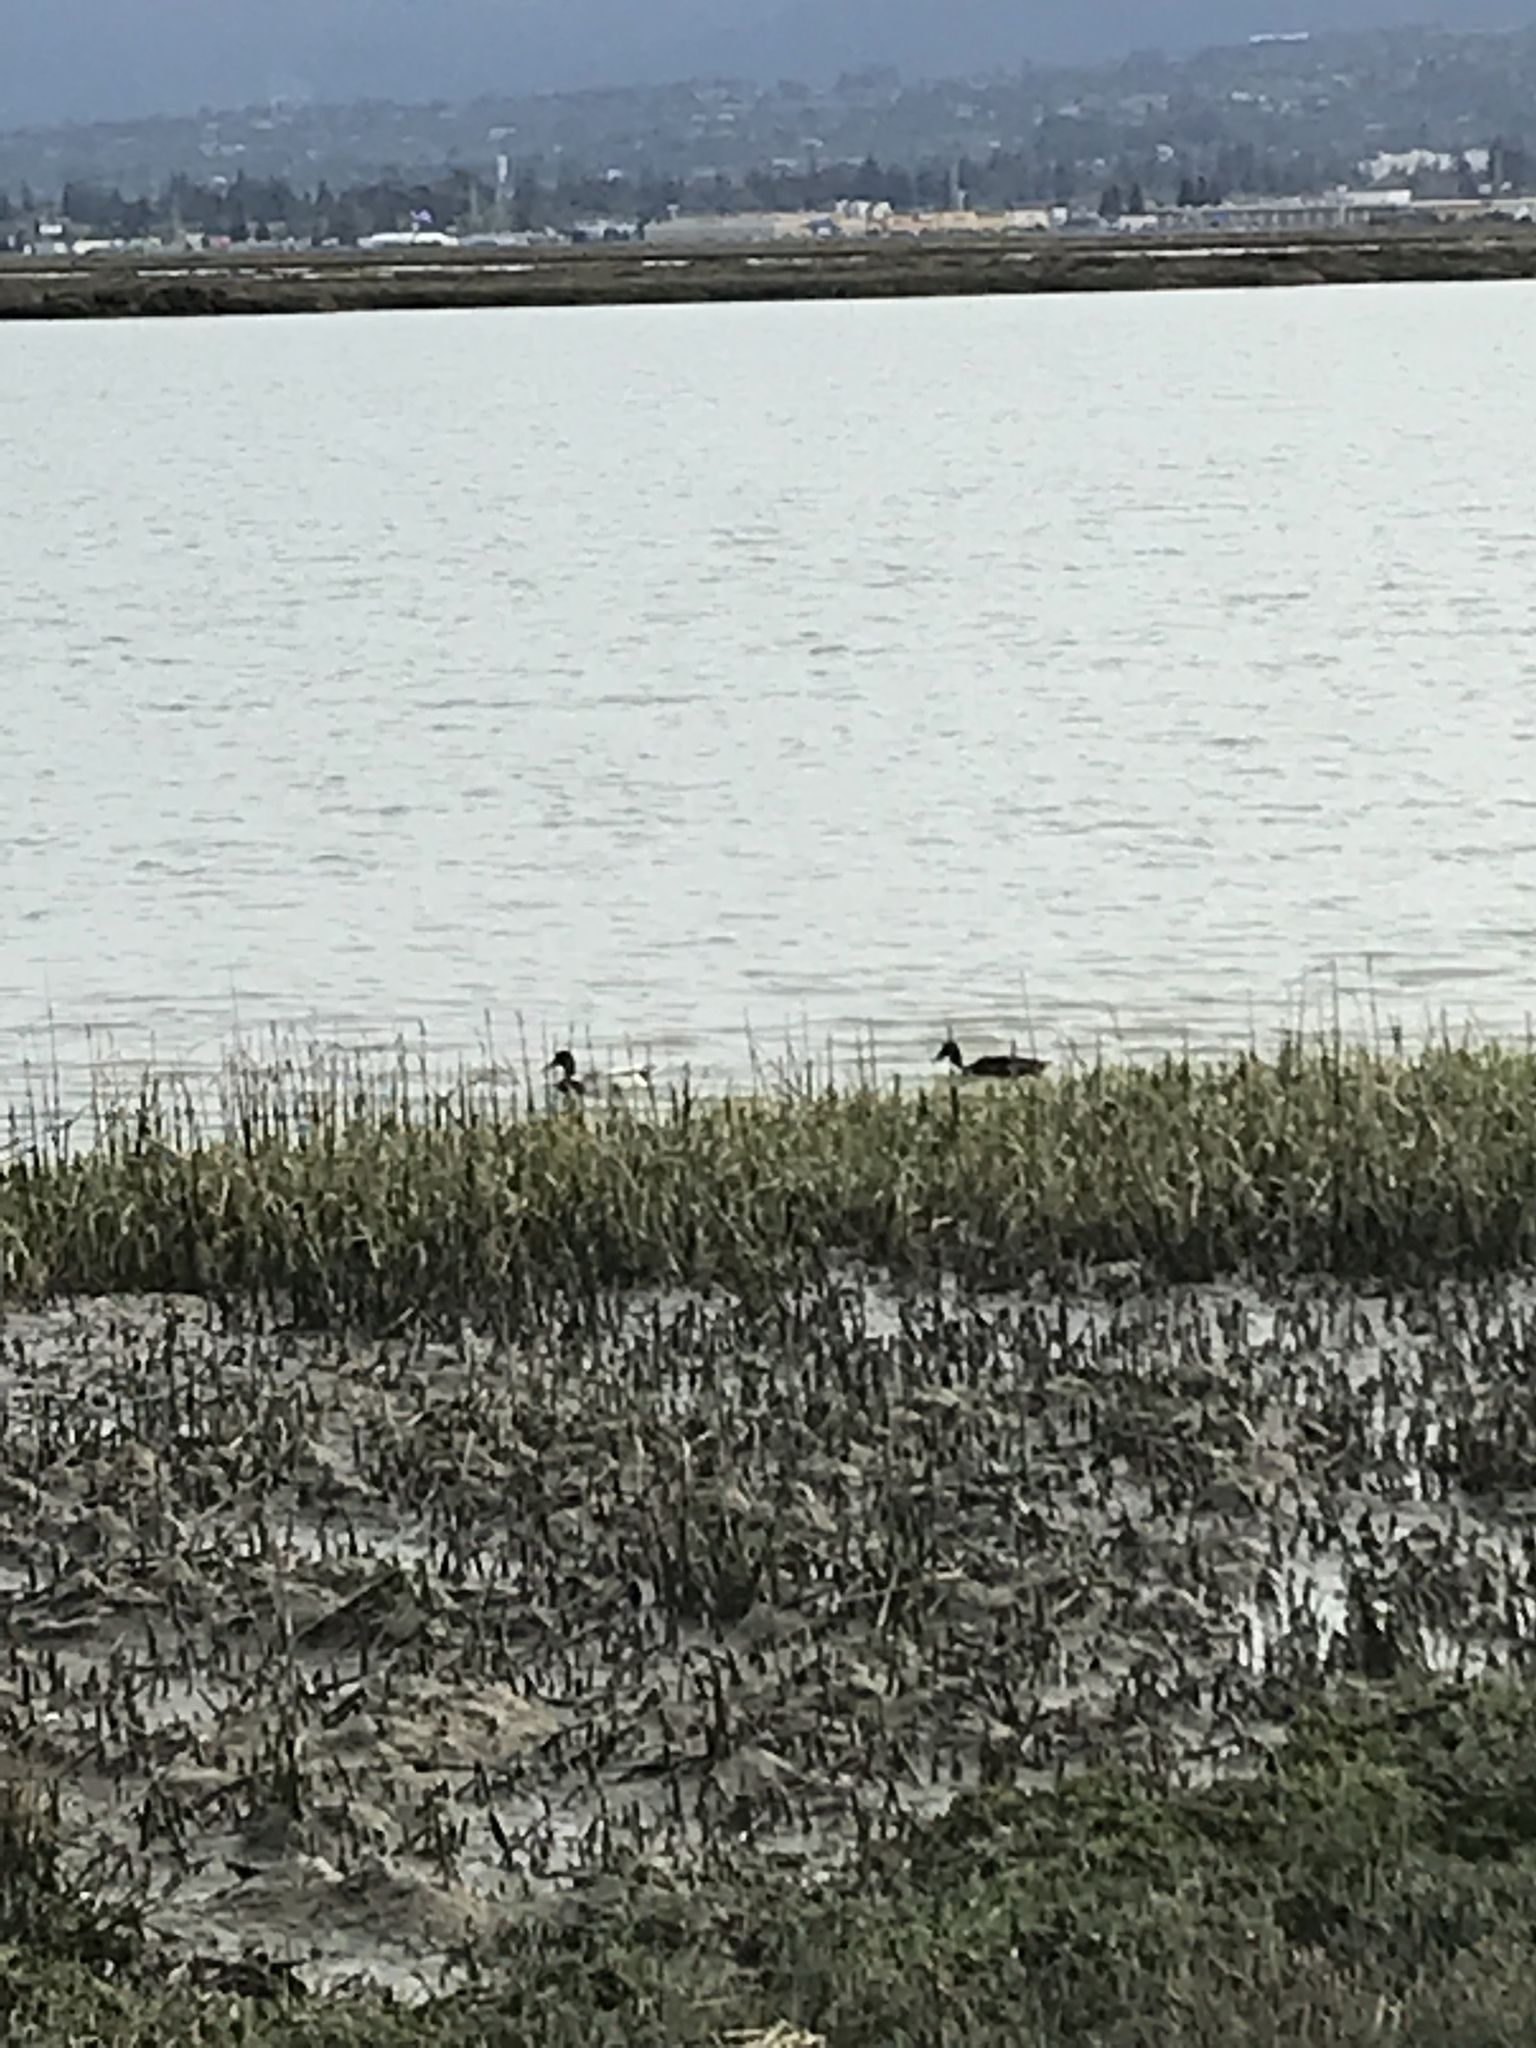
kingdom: Animalia
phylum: Chordata
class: Aves
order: Anseriformes
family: Anatidae
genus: Spatula
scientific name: Spatula clypeata
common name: Northern shoveler
